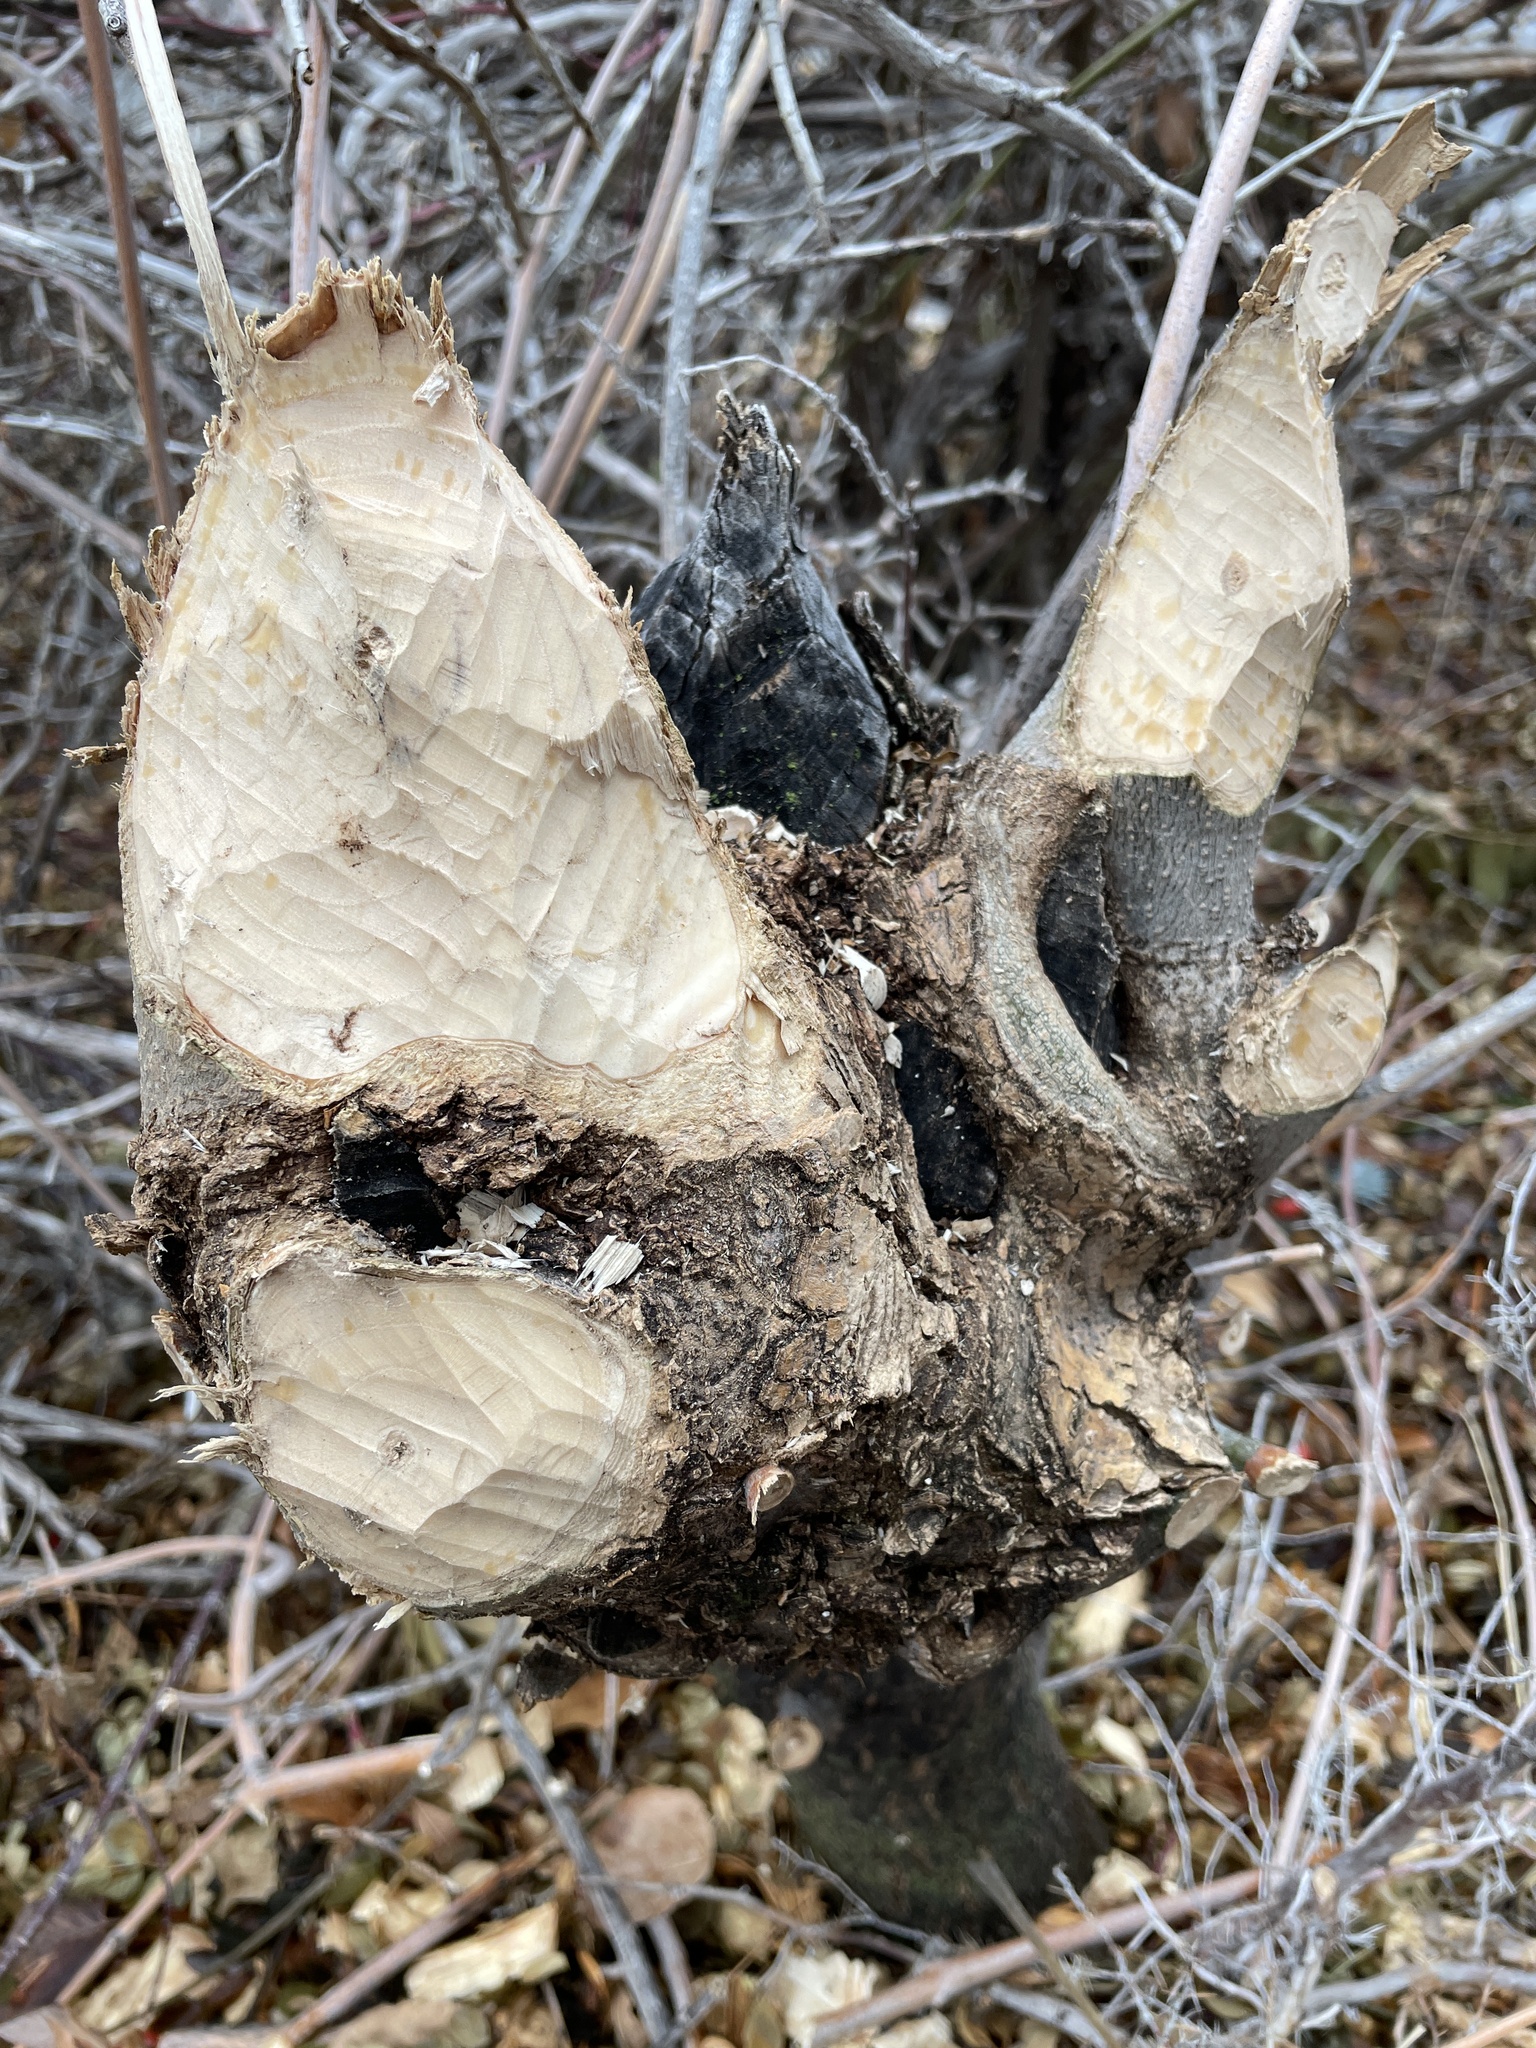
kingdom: Animalia
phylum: Chordata
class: Mammalia
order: Rodentia
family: Castoridae
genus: Castor
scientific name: Castor canadensis
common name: American beaver
